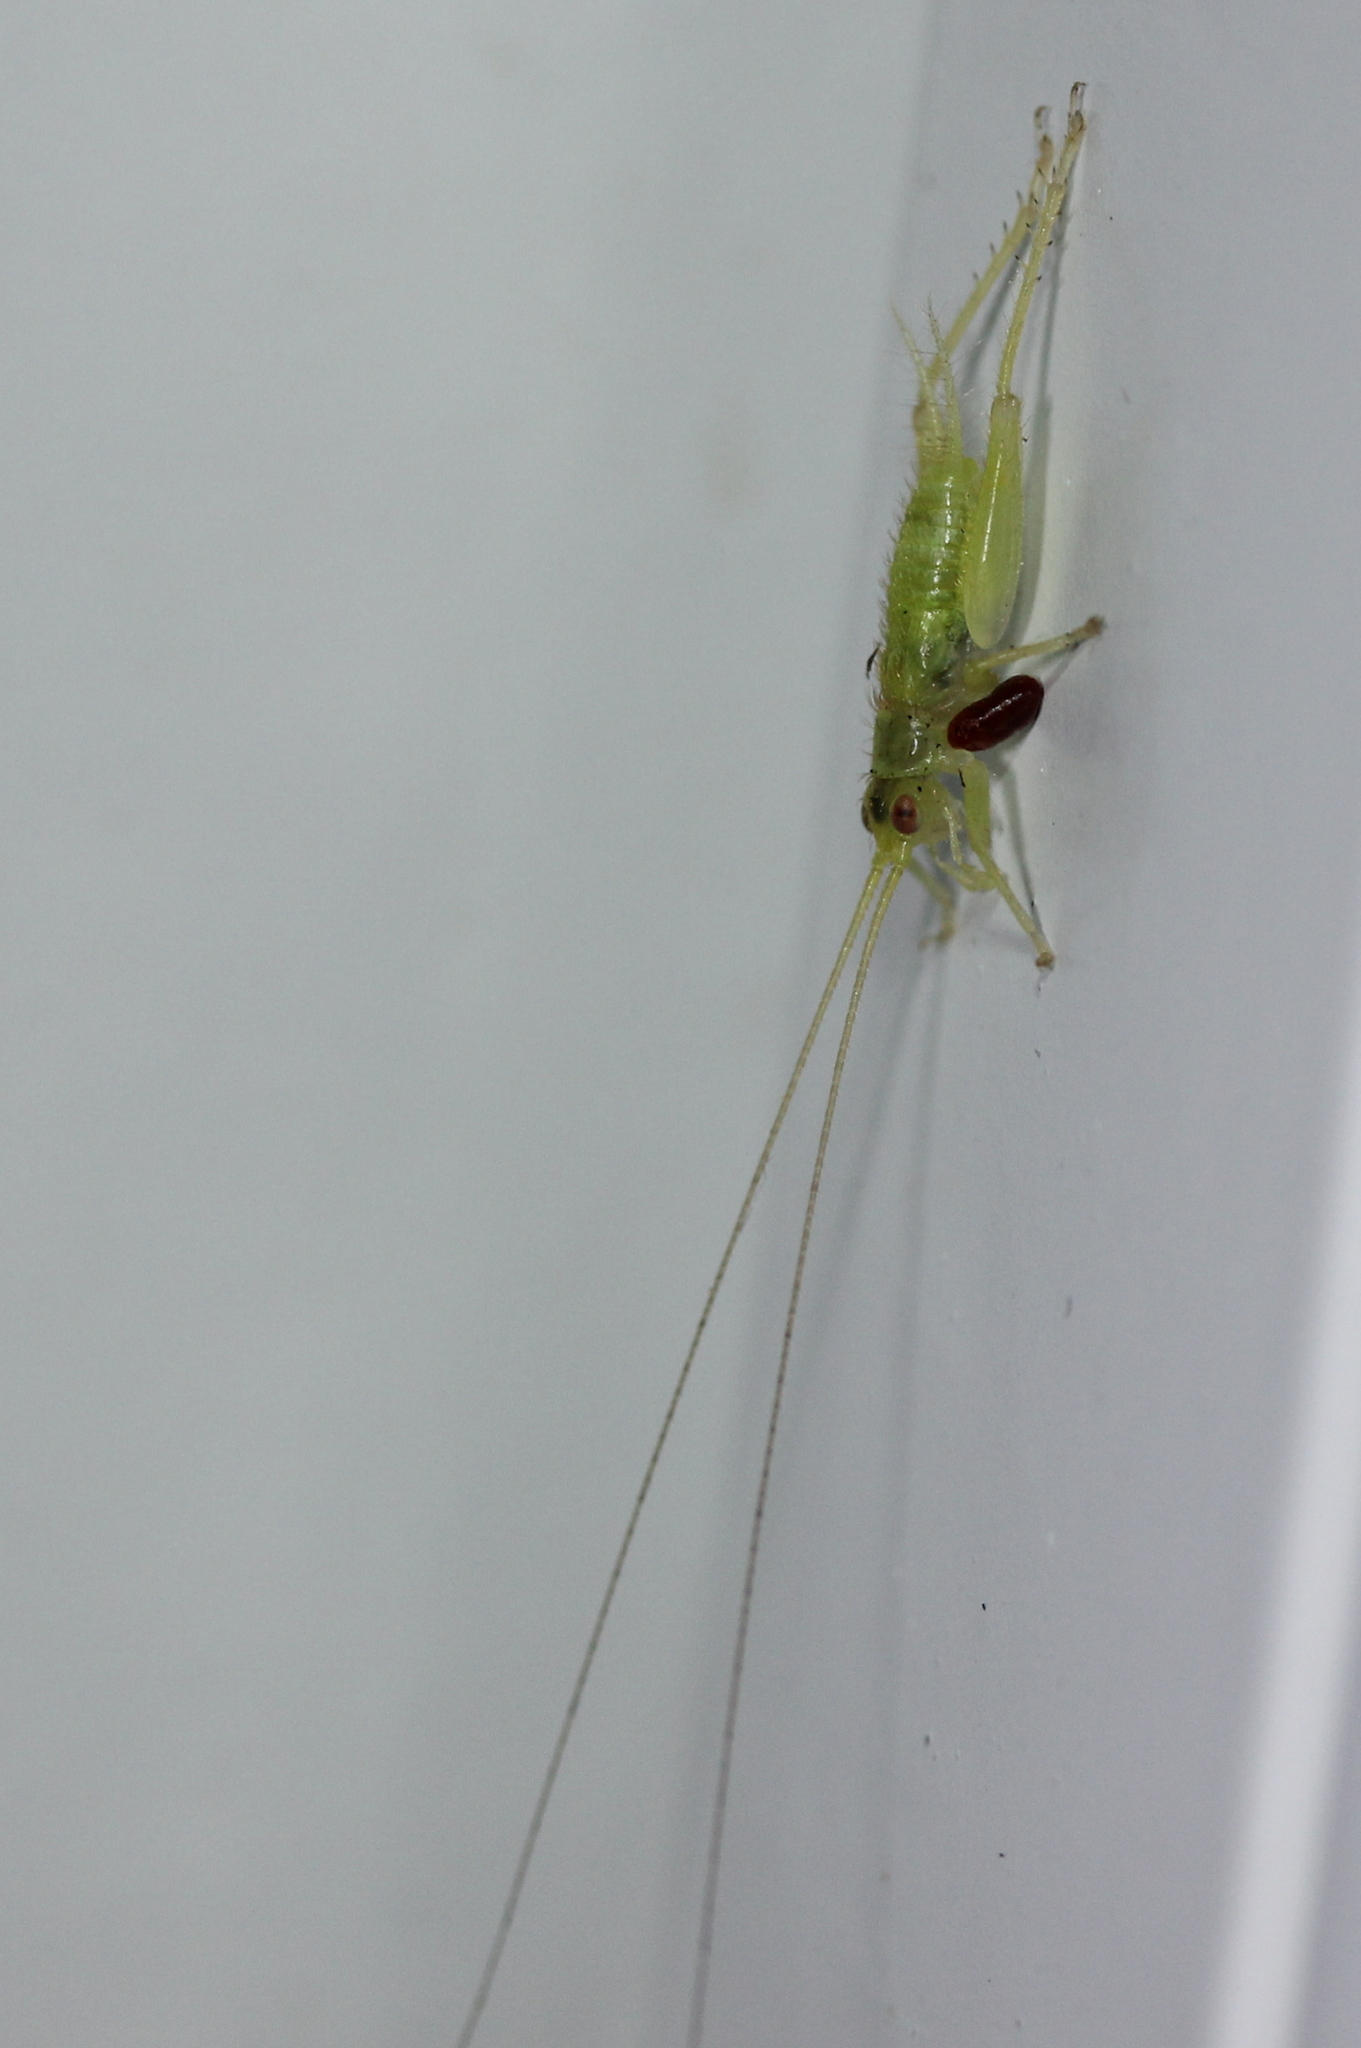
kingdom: Animalia
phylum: Arthropoda
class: Insecta
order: Orthoptera
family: Trigonidiidae
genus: Cyrtoxipha
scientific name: Cyrtoxipha columbiana
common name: Columbian trig
